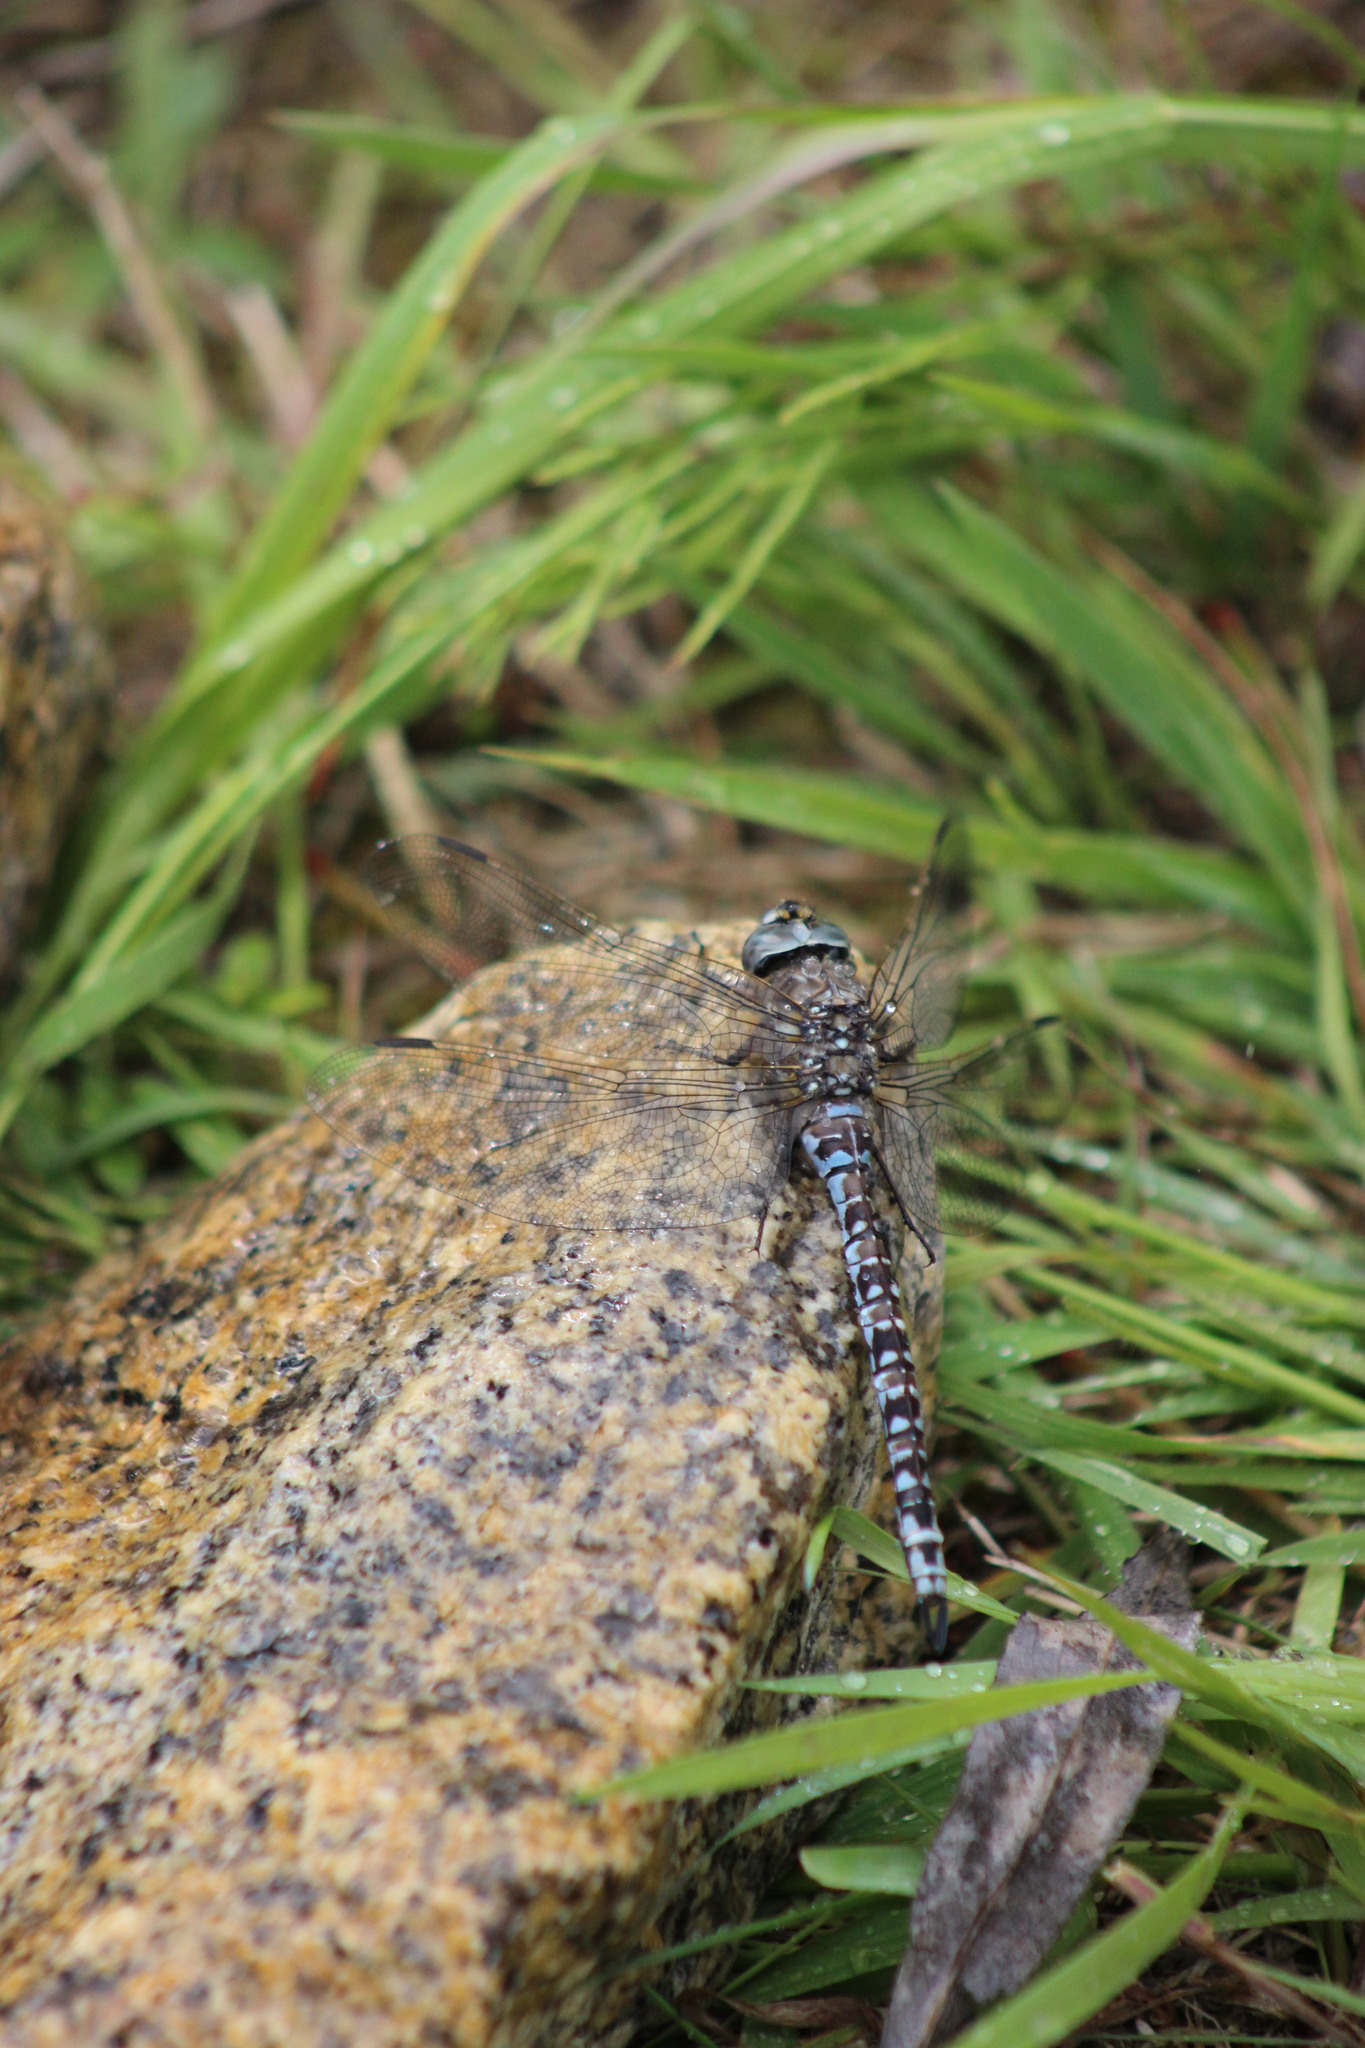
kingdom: Animalia
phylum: Arthropoda
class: Insecta
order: Odonata
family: Aeshnidae
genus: Aeshna
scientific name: Aeshna caerulea
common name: Azure hawker
